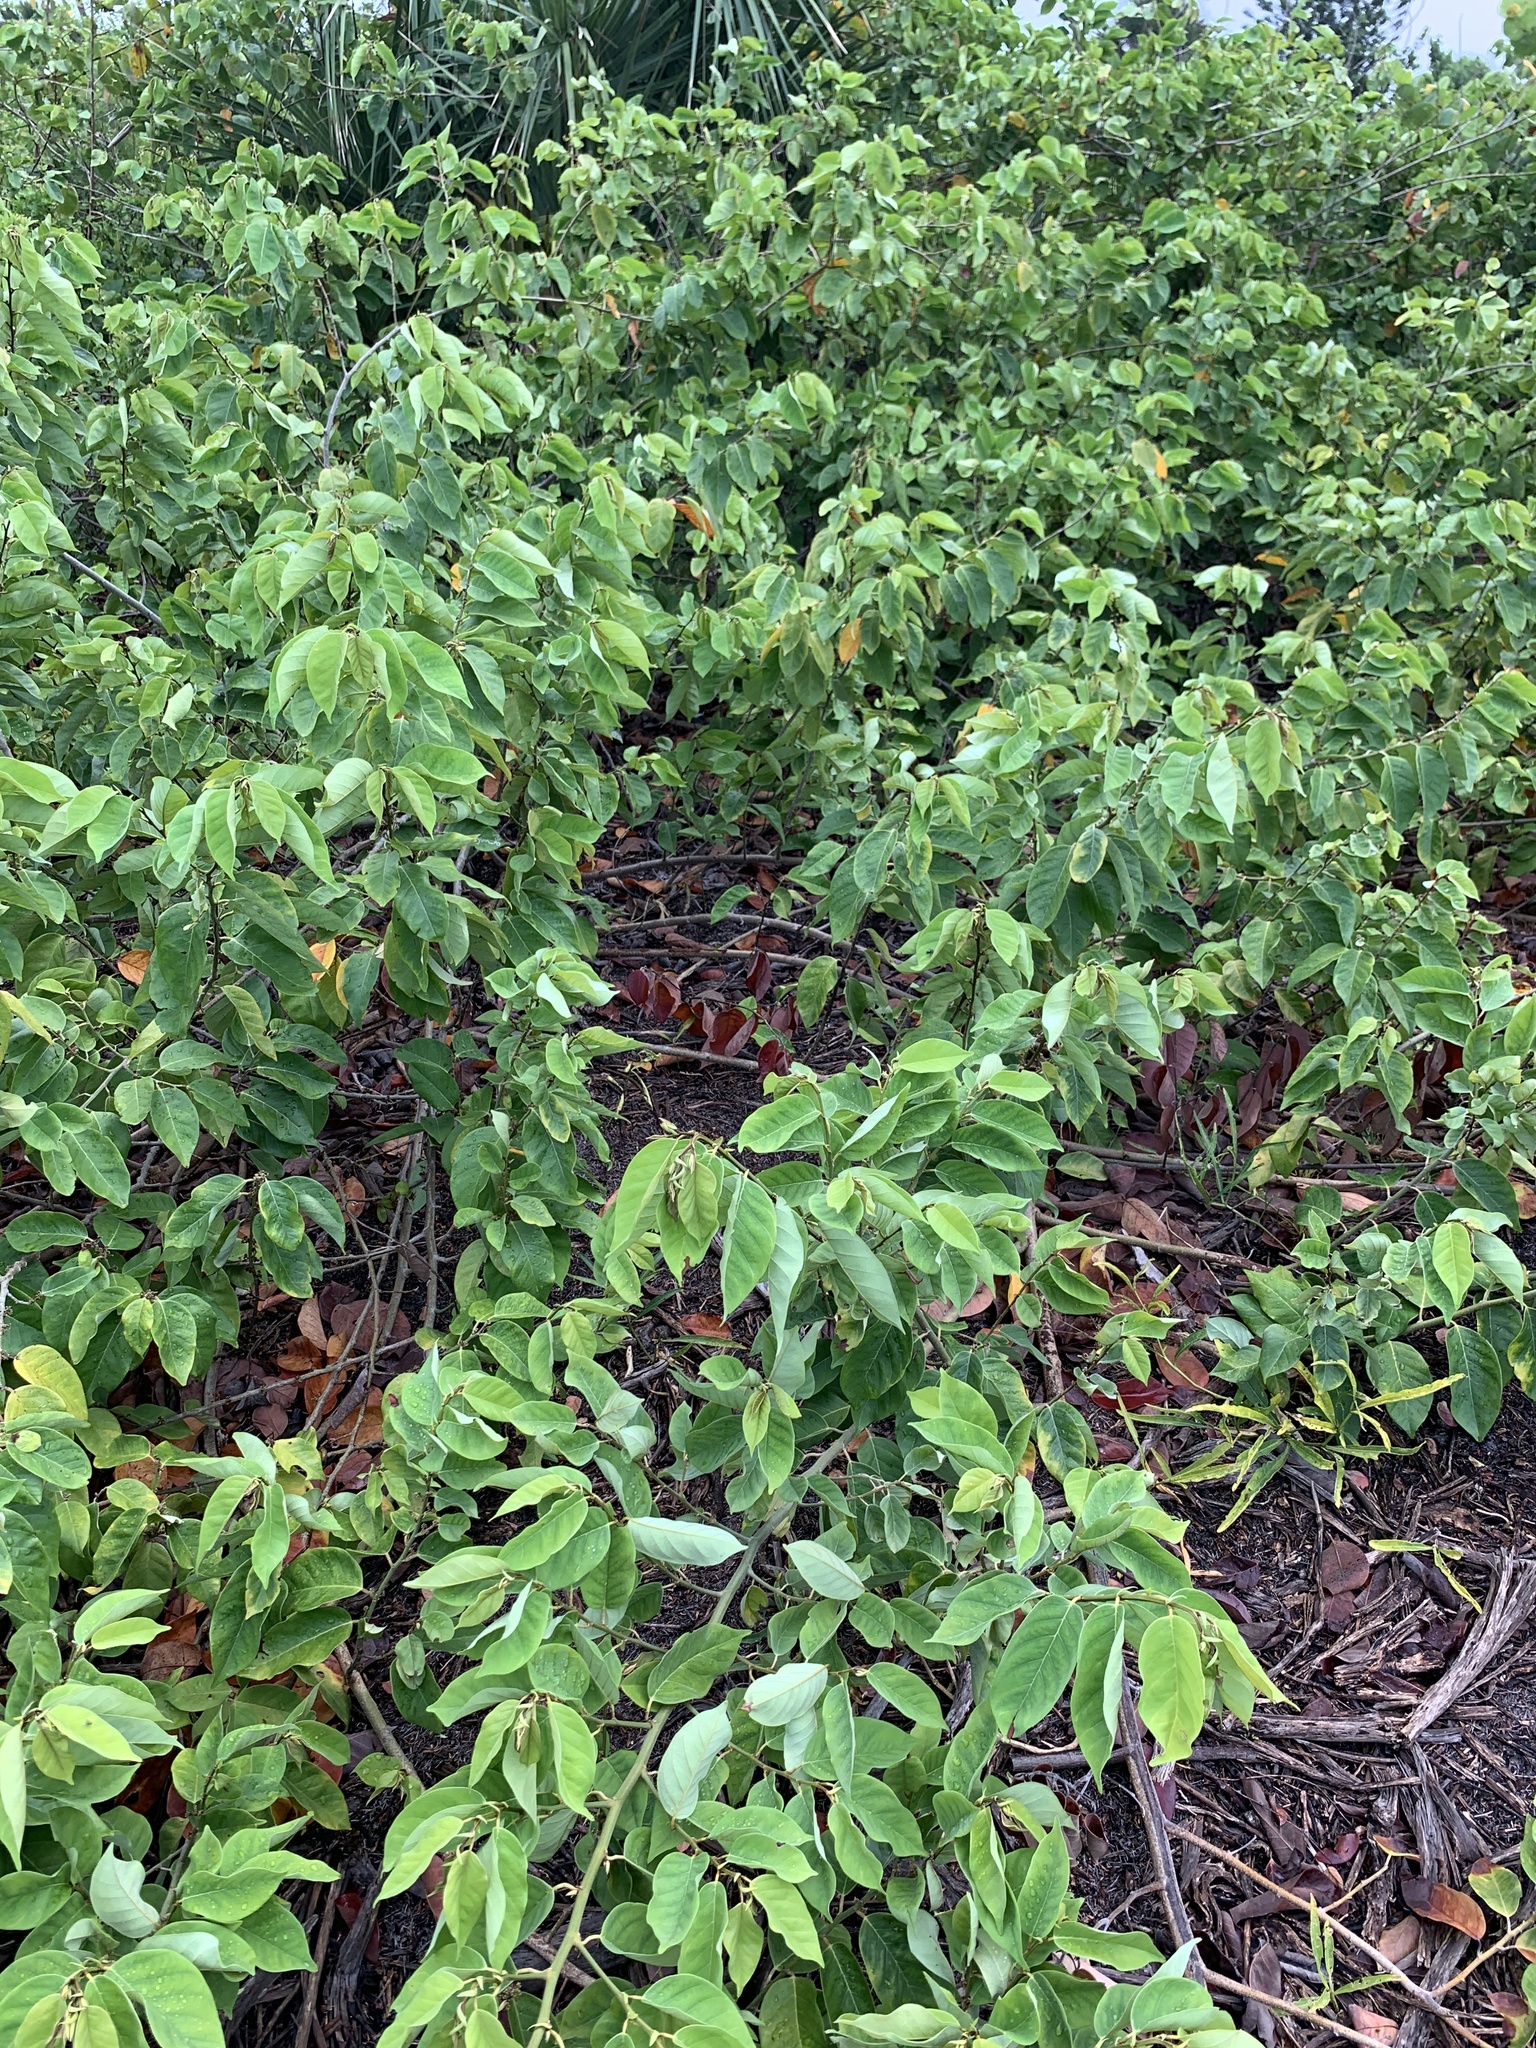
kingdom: Plantae
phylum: Tracheophyta
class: Magnoliopsida
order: Fabales
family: Fabaceae
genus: Dalbergia
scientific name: Dalbergia ecastaphyllum
